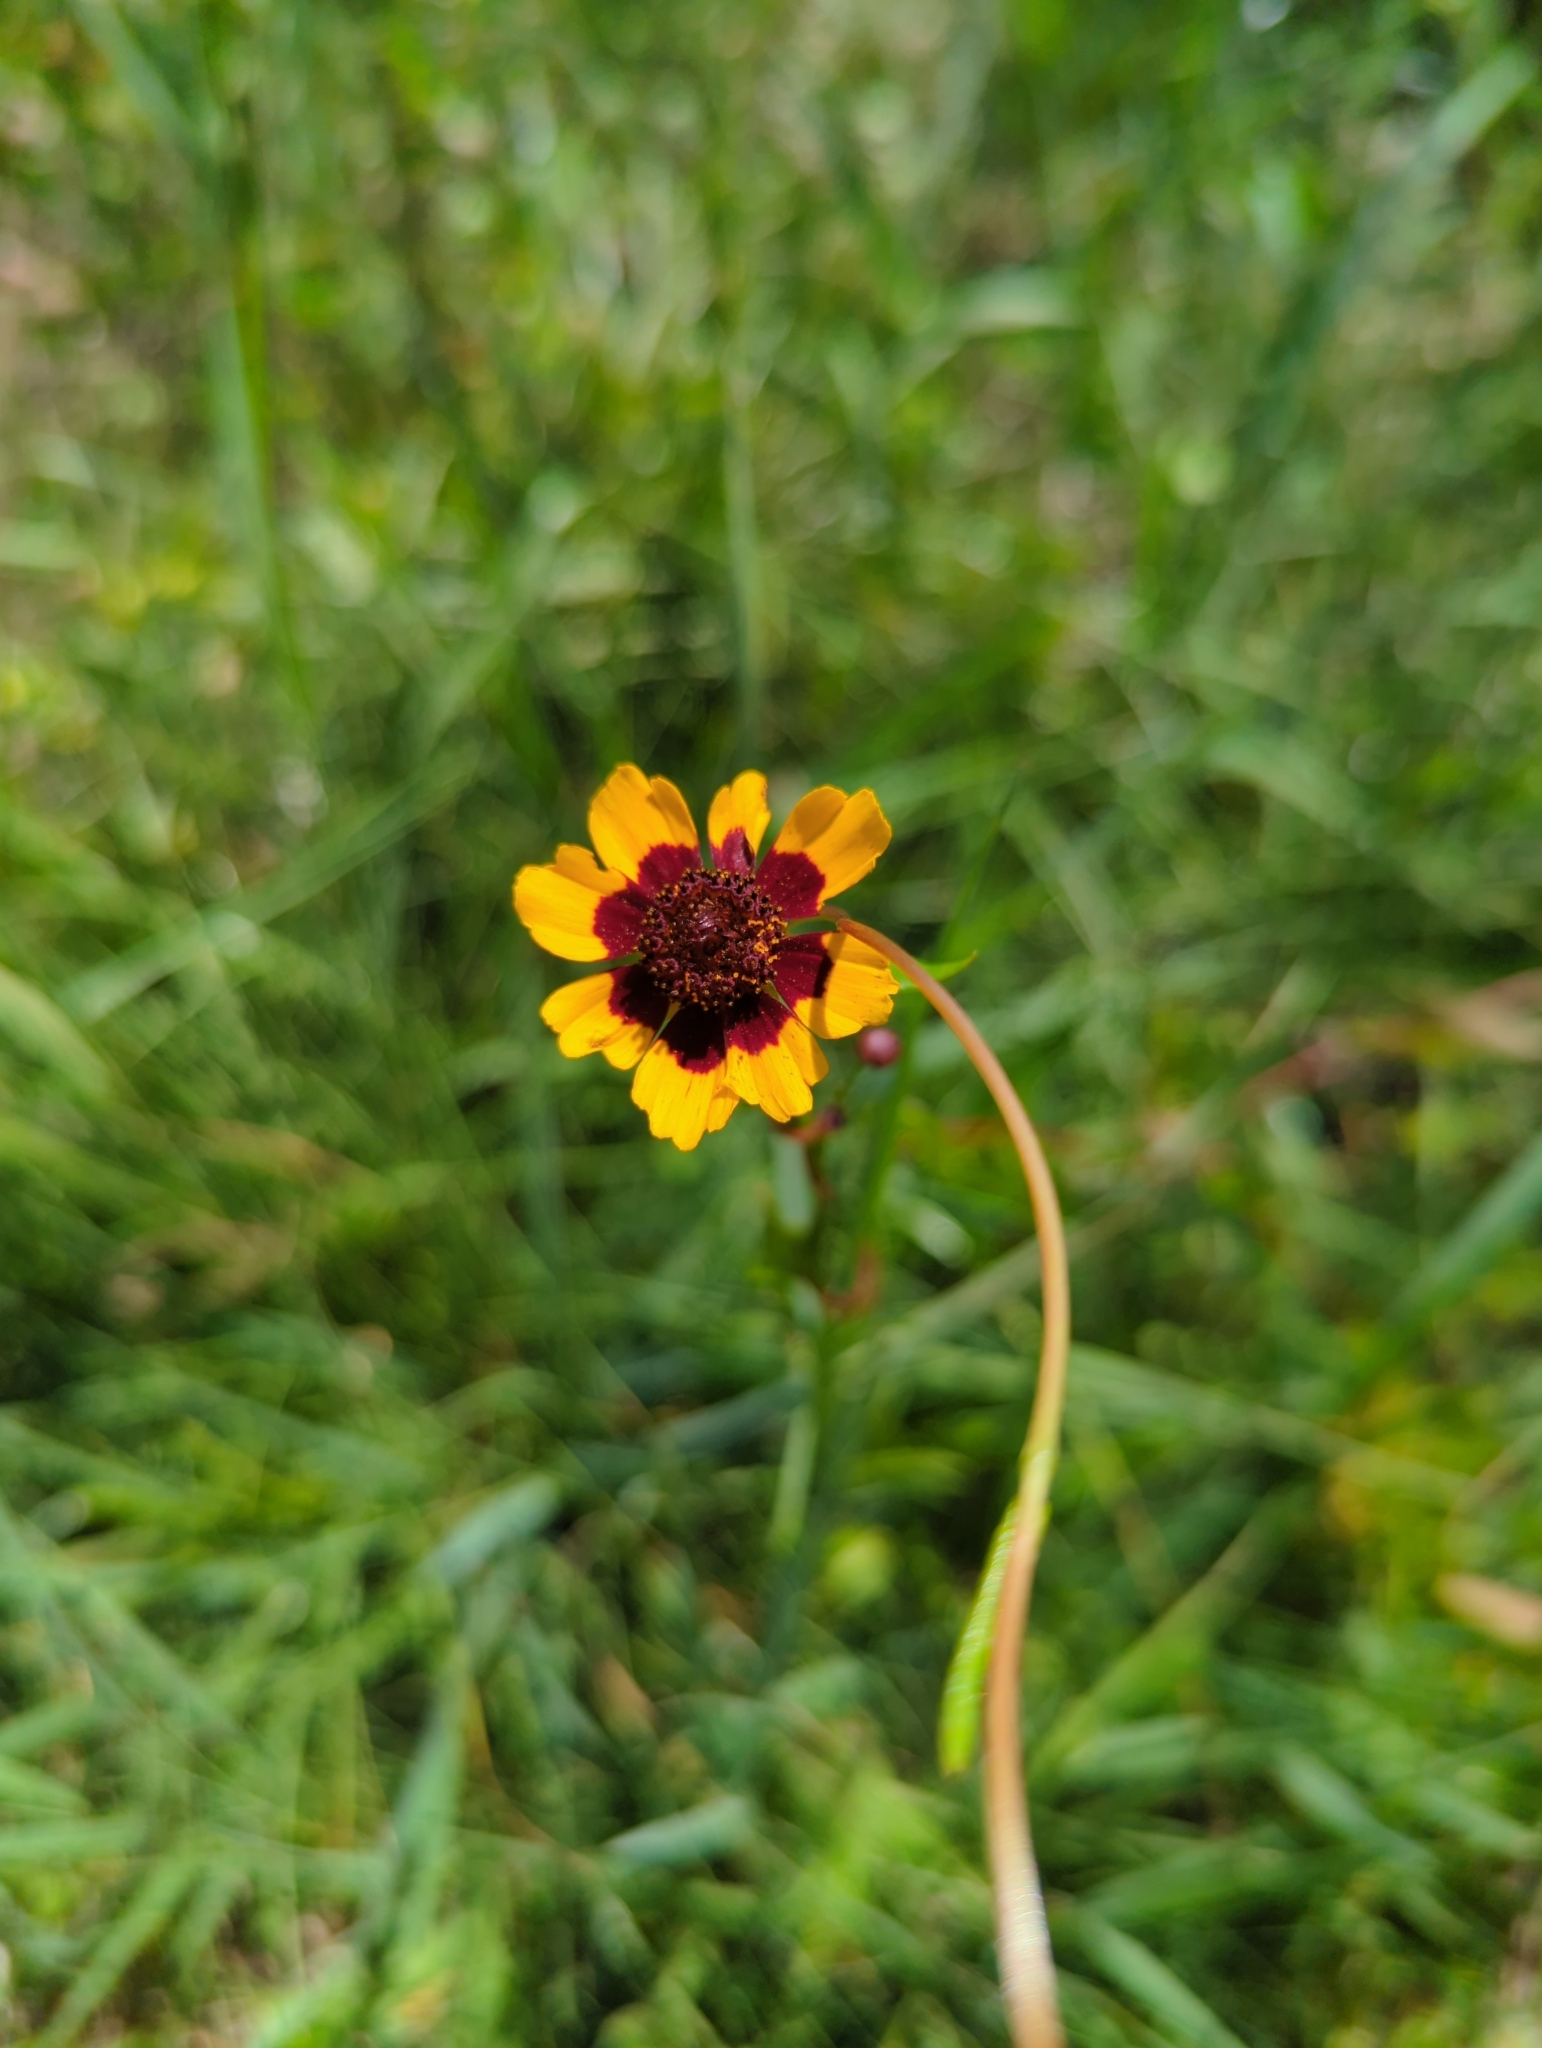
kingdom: Plantae
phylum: Tracheophyta
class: Magnoliopsida
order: Asterales
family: Asteraceae
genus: Coreopsis
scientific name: Coreopsis tinctoria
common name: Garden tickseed
